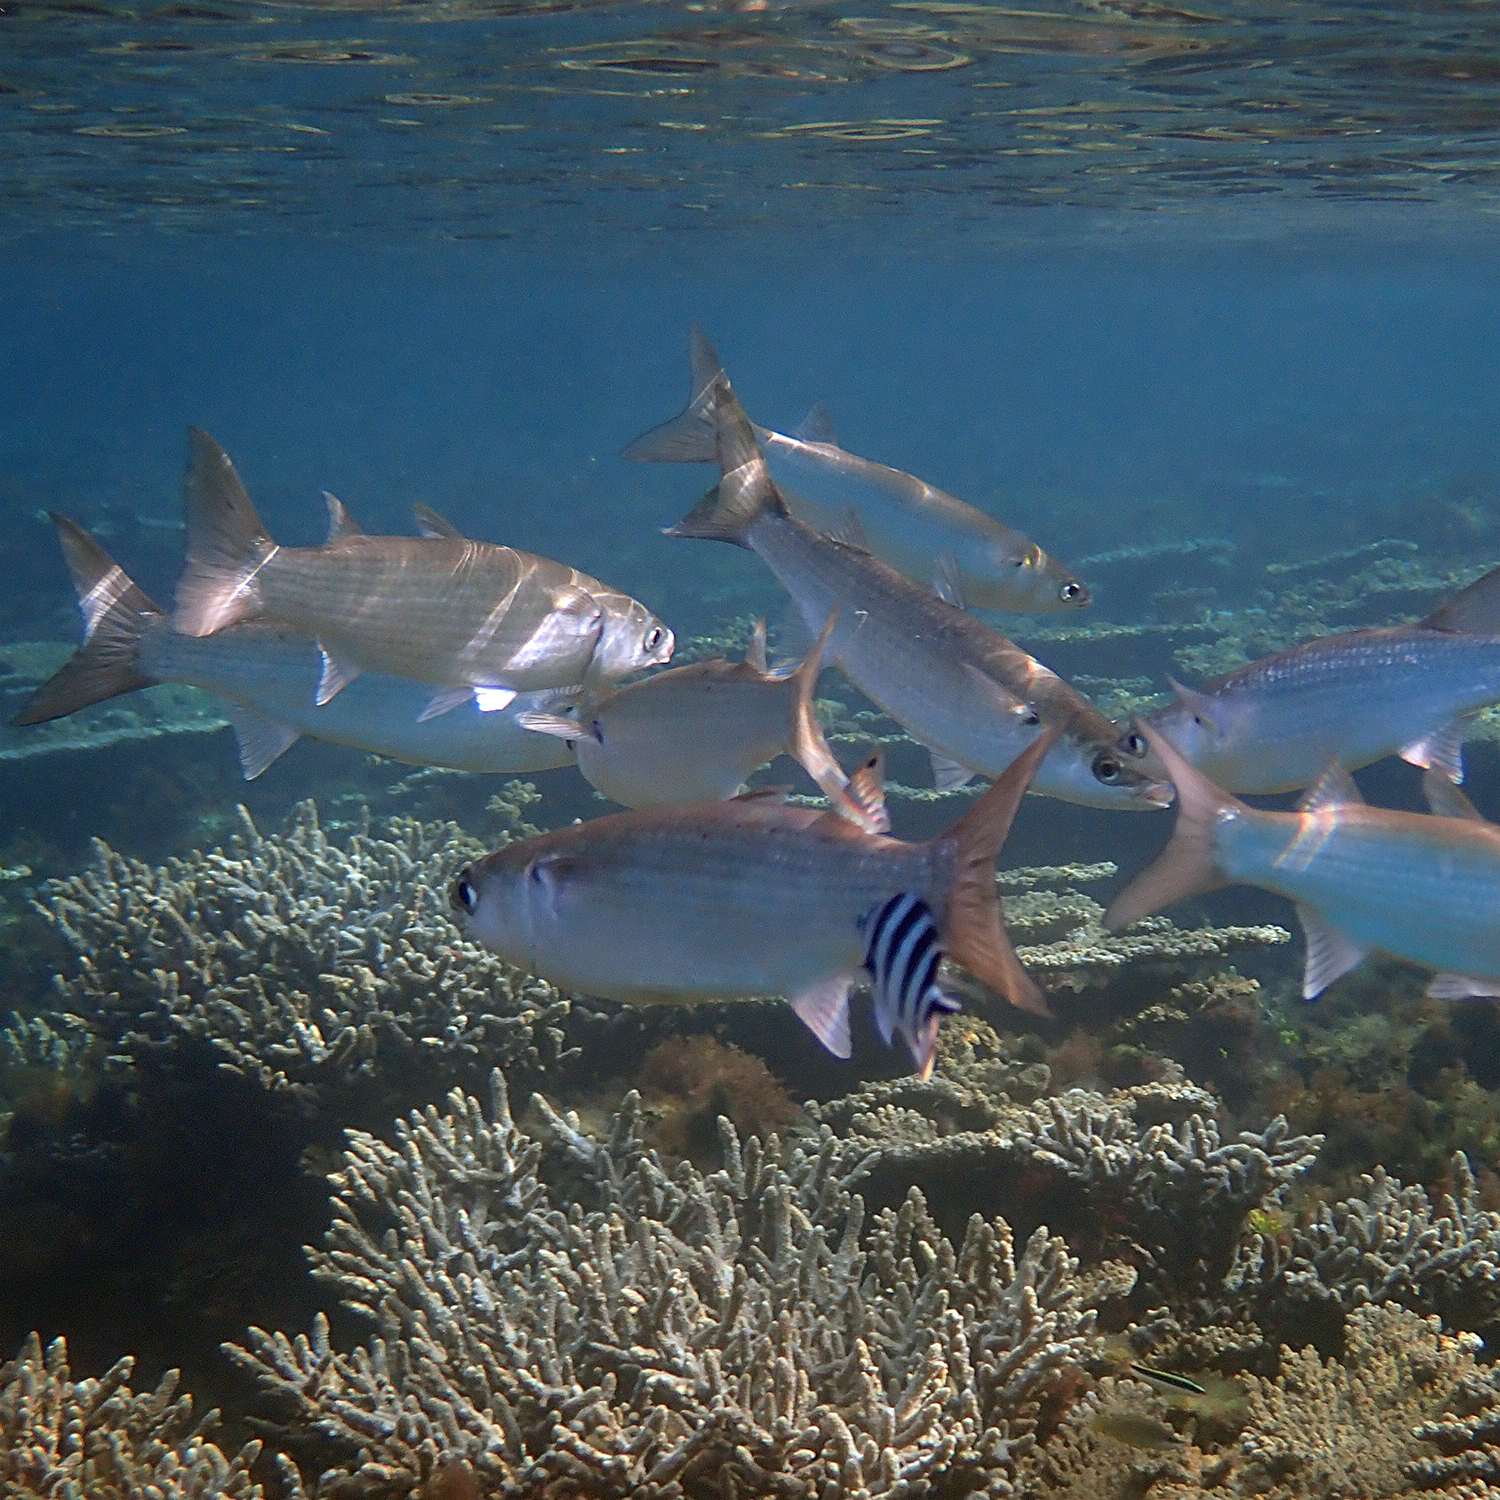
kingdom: Animalia
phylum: Chordata
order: Mugiliformes
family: Mugilidae
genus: Myxus
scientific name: Myxus elongatus
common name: Sand grey mullet
